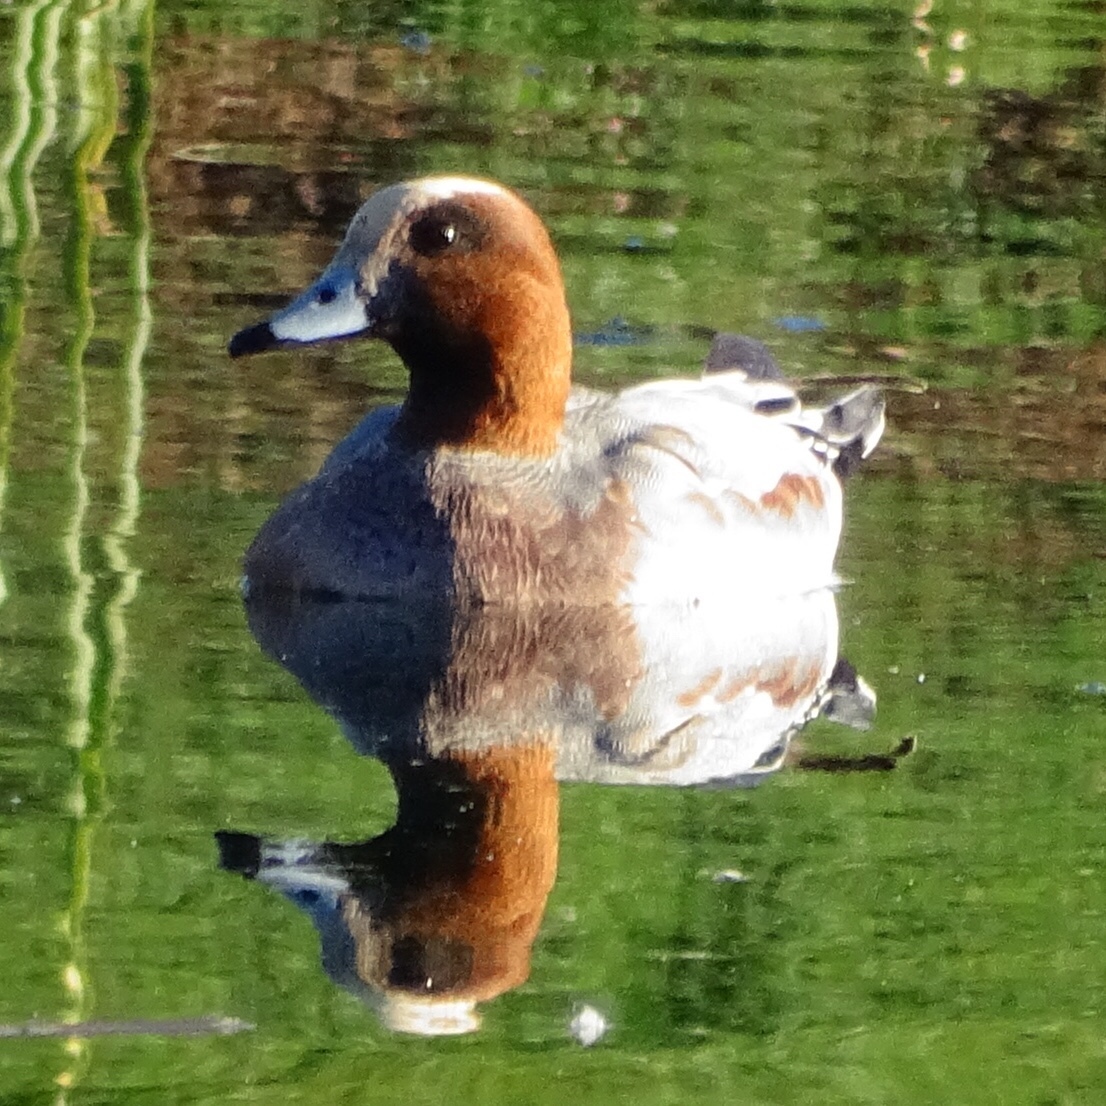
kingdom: Animalia
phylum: Chordata
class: Aves
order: Anseriformes
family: Anatidae
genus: Mareca
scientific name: Mareca penelope
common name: Eurasian wigeon
